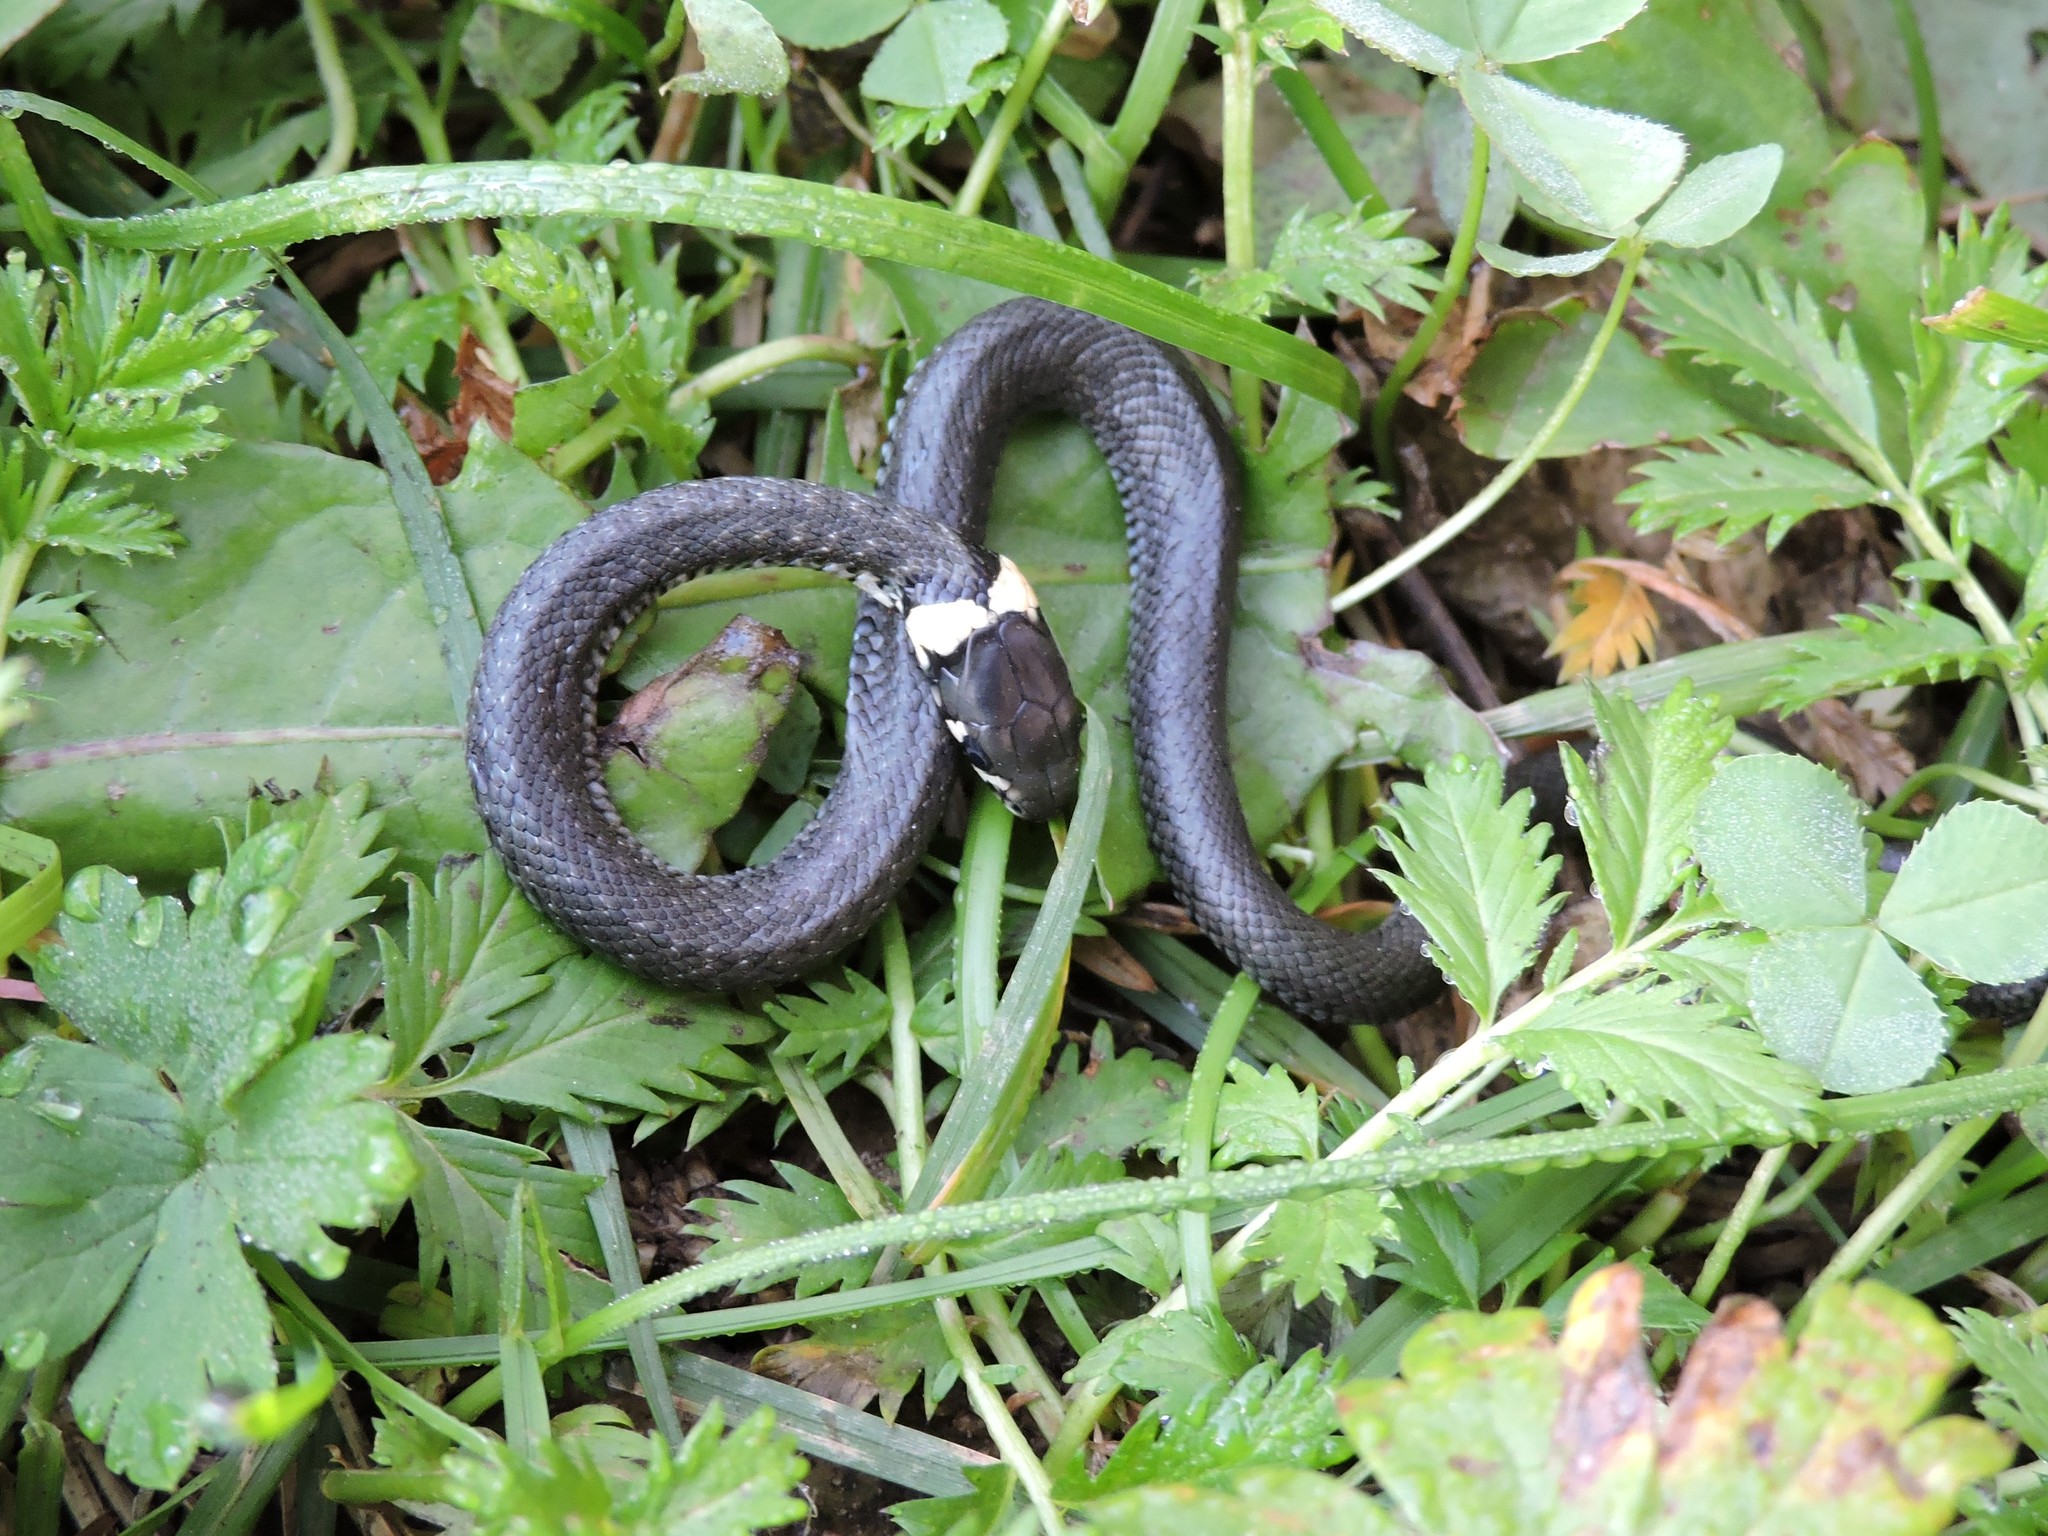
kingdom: Animalia
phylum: Chordata
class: Squamata
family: Colubridae
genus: Natrix
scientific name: Natrix natrix
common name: Grass snake
